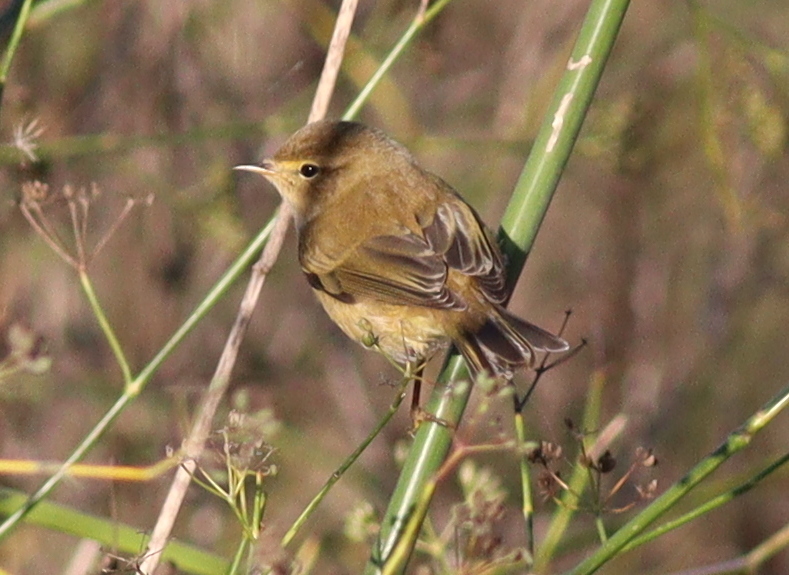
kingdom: Animalia
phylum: Chordata
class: Aves
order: Passeriformes
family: Phylloscopidae
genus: Phylloscopus
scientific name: Phylloscopus collybita
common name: Common chiffchaff
